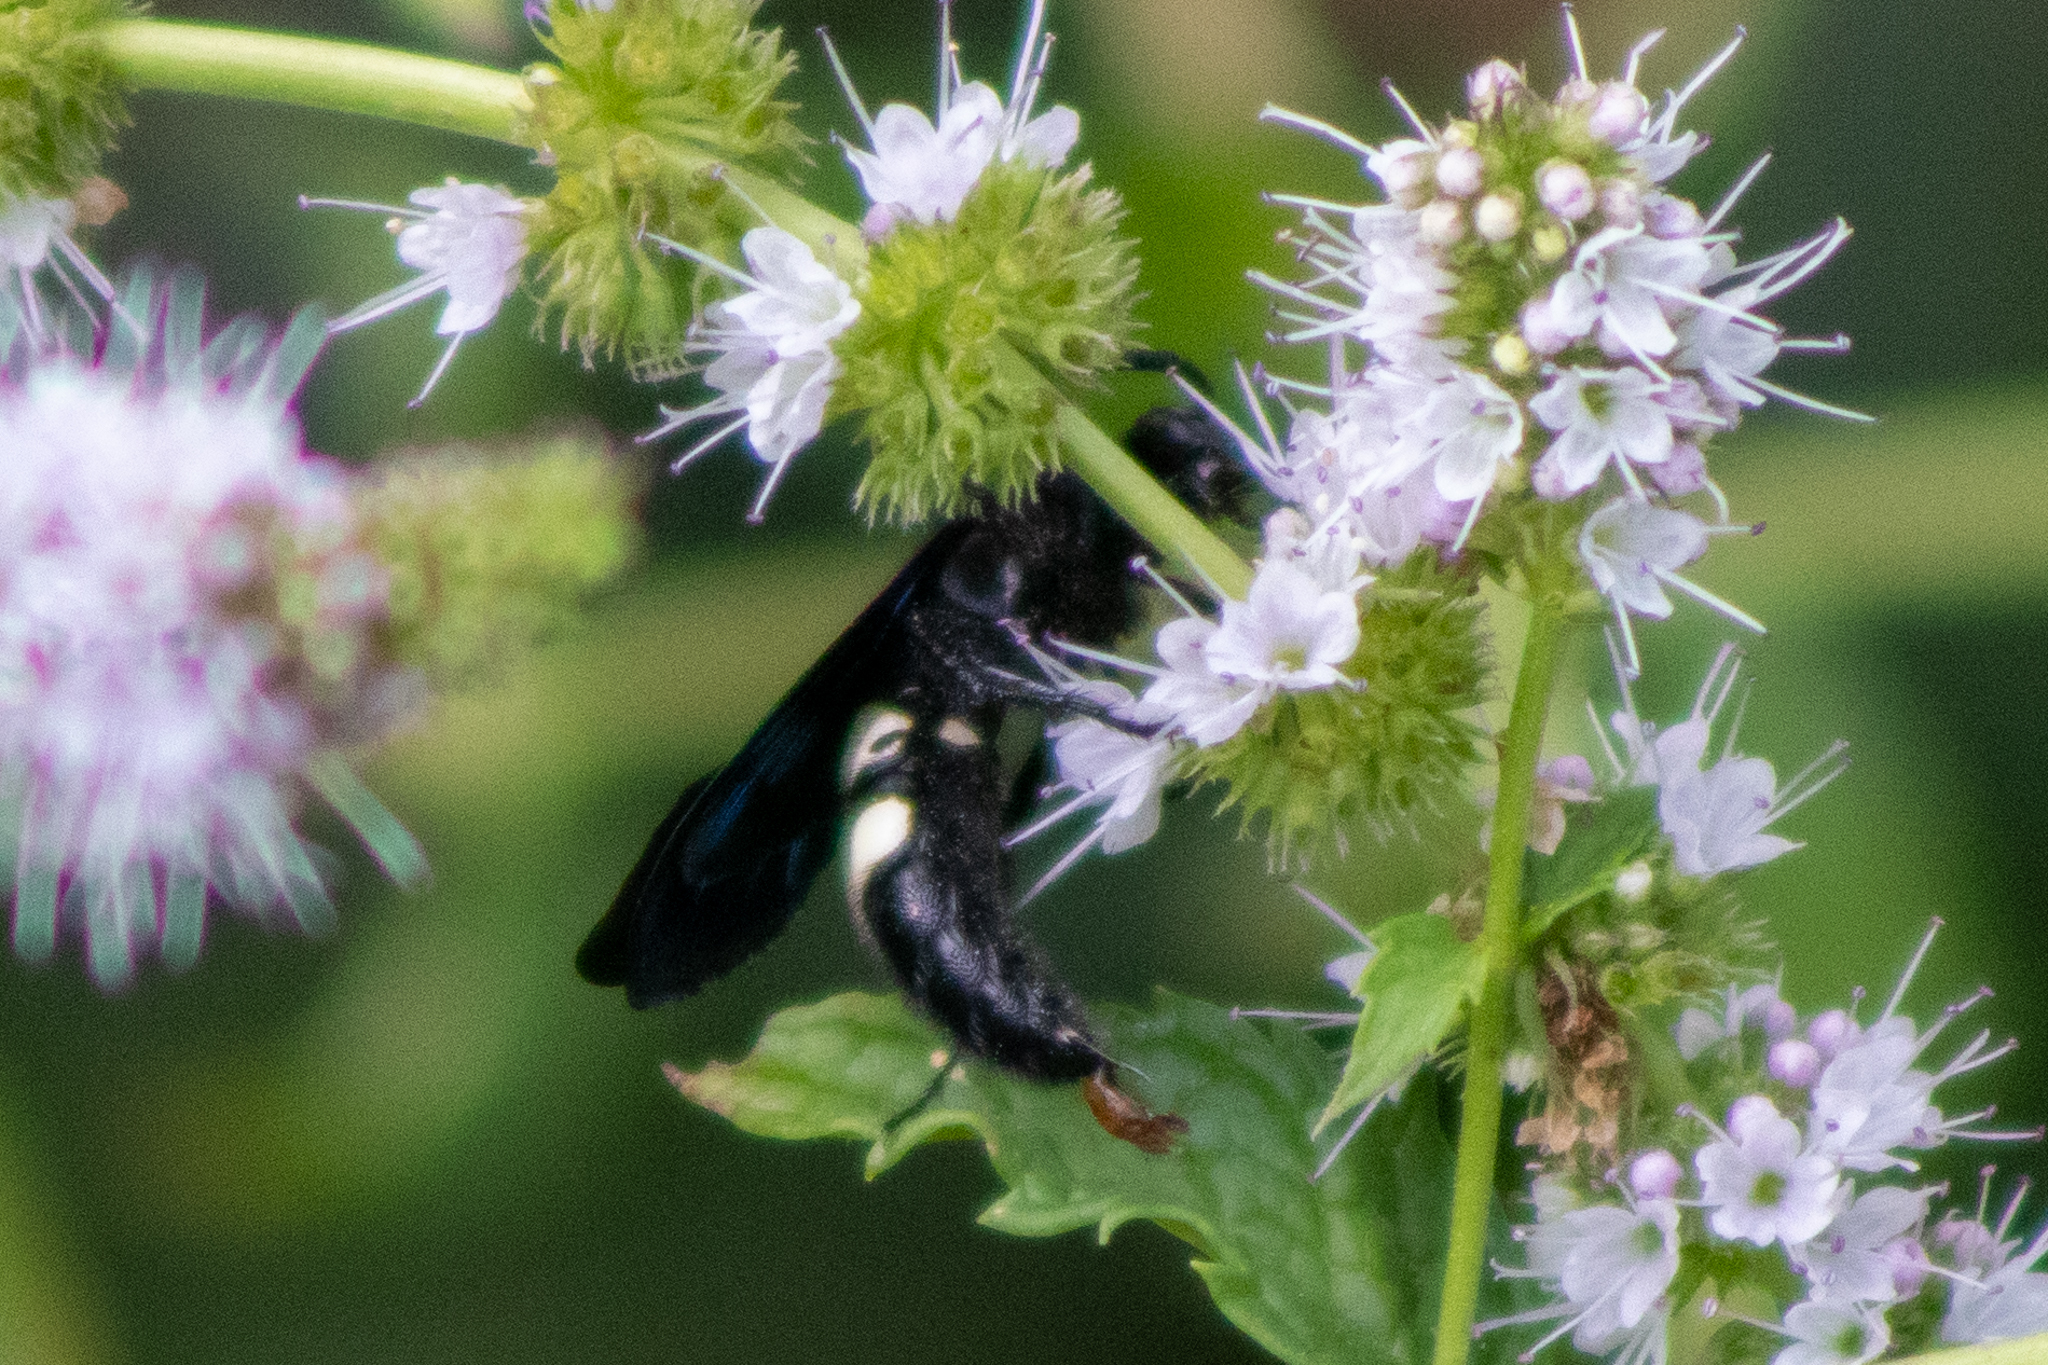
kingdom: Animalia
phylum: Arthropoda
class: Insecta
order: Hymenoptera
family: Scoliidae
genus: Scolia
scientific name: Scolia bicincta
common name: Double-banded scoliid wasp
